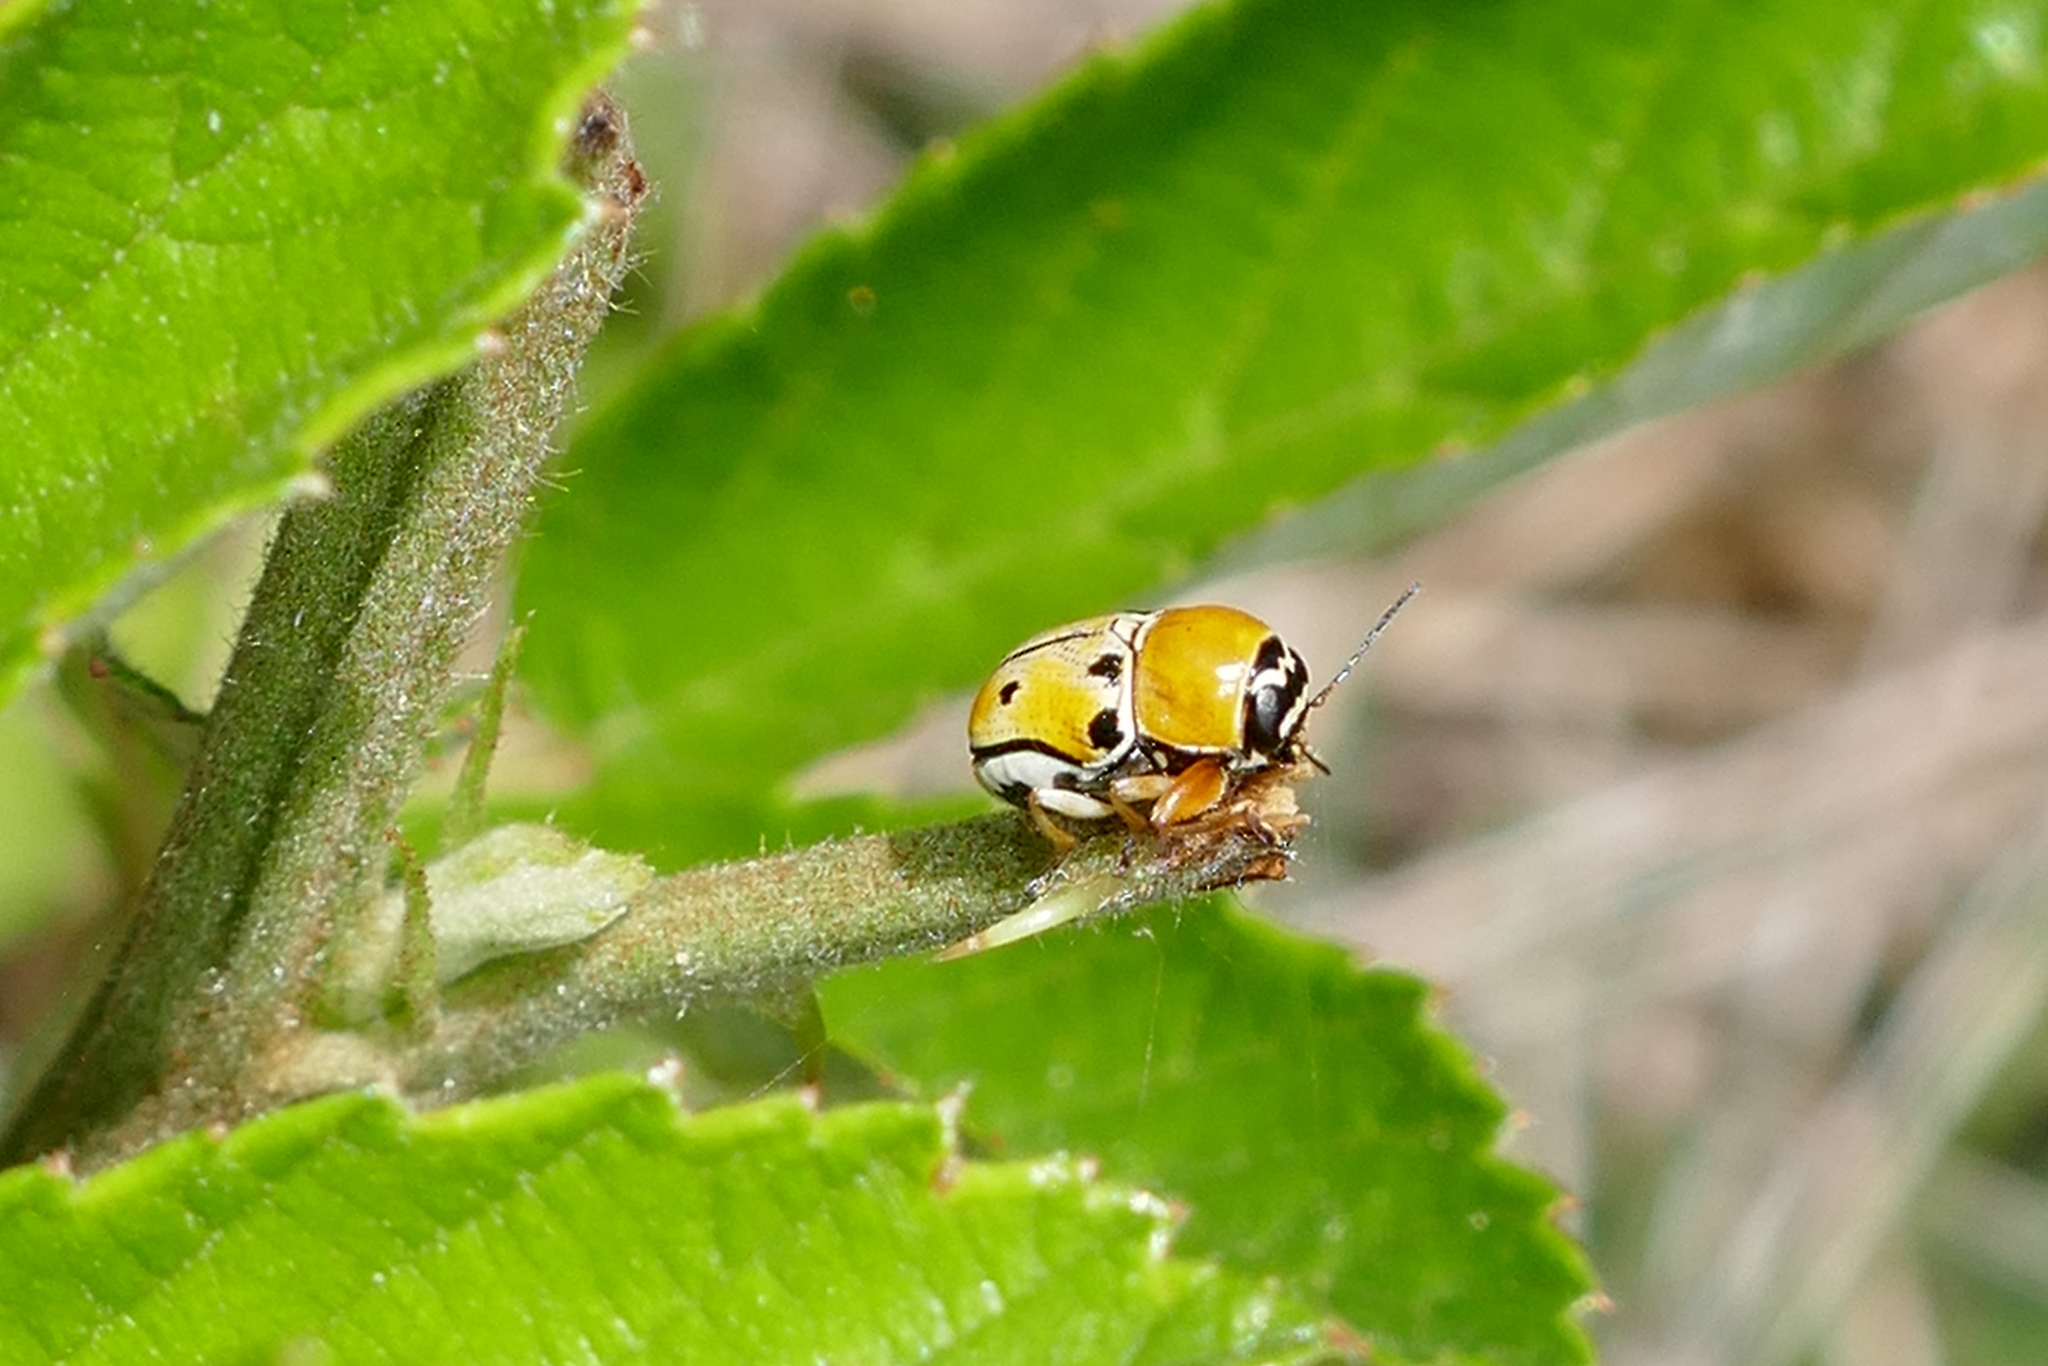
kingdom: Animalia
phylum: Arthropoda
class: Insecta
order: Coleoptera
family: Chrysomelidae
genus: Griburius
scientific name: Griburius larvatus
